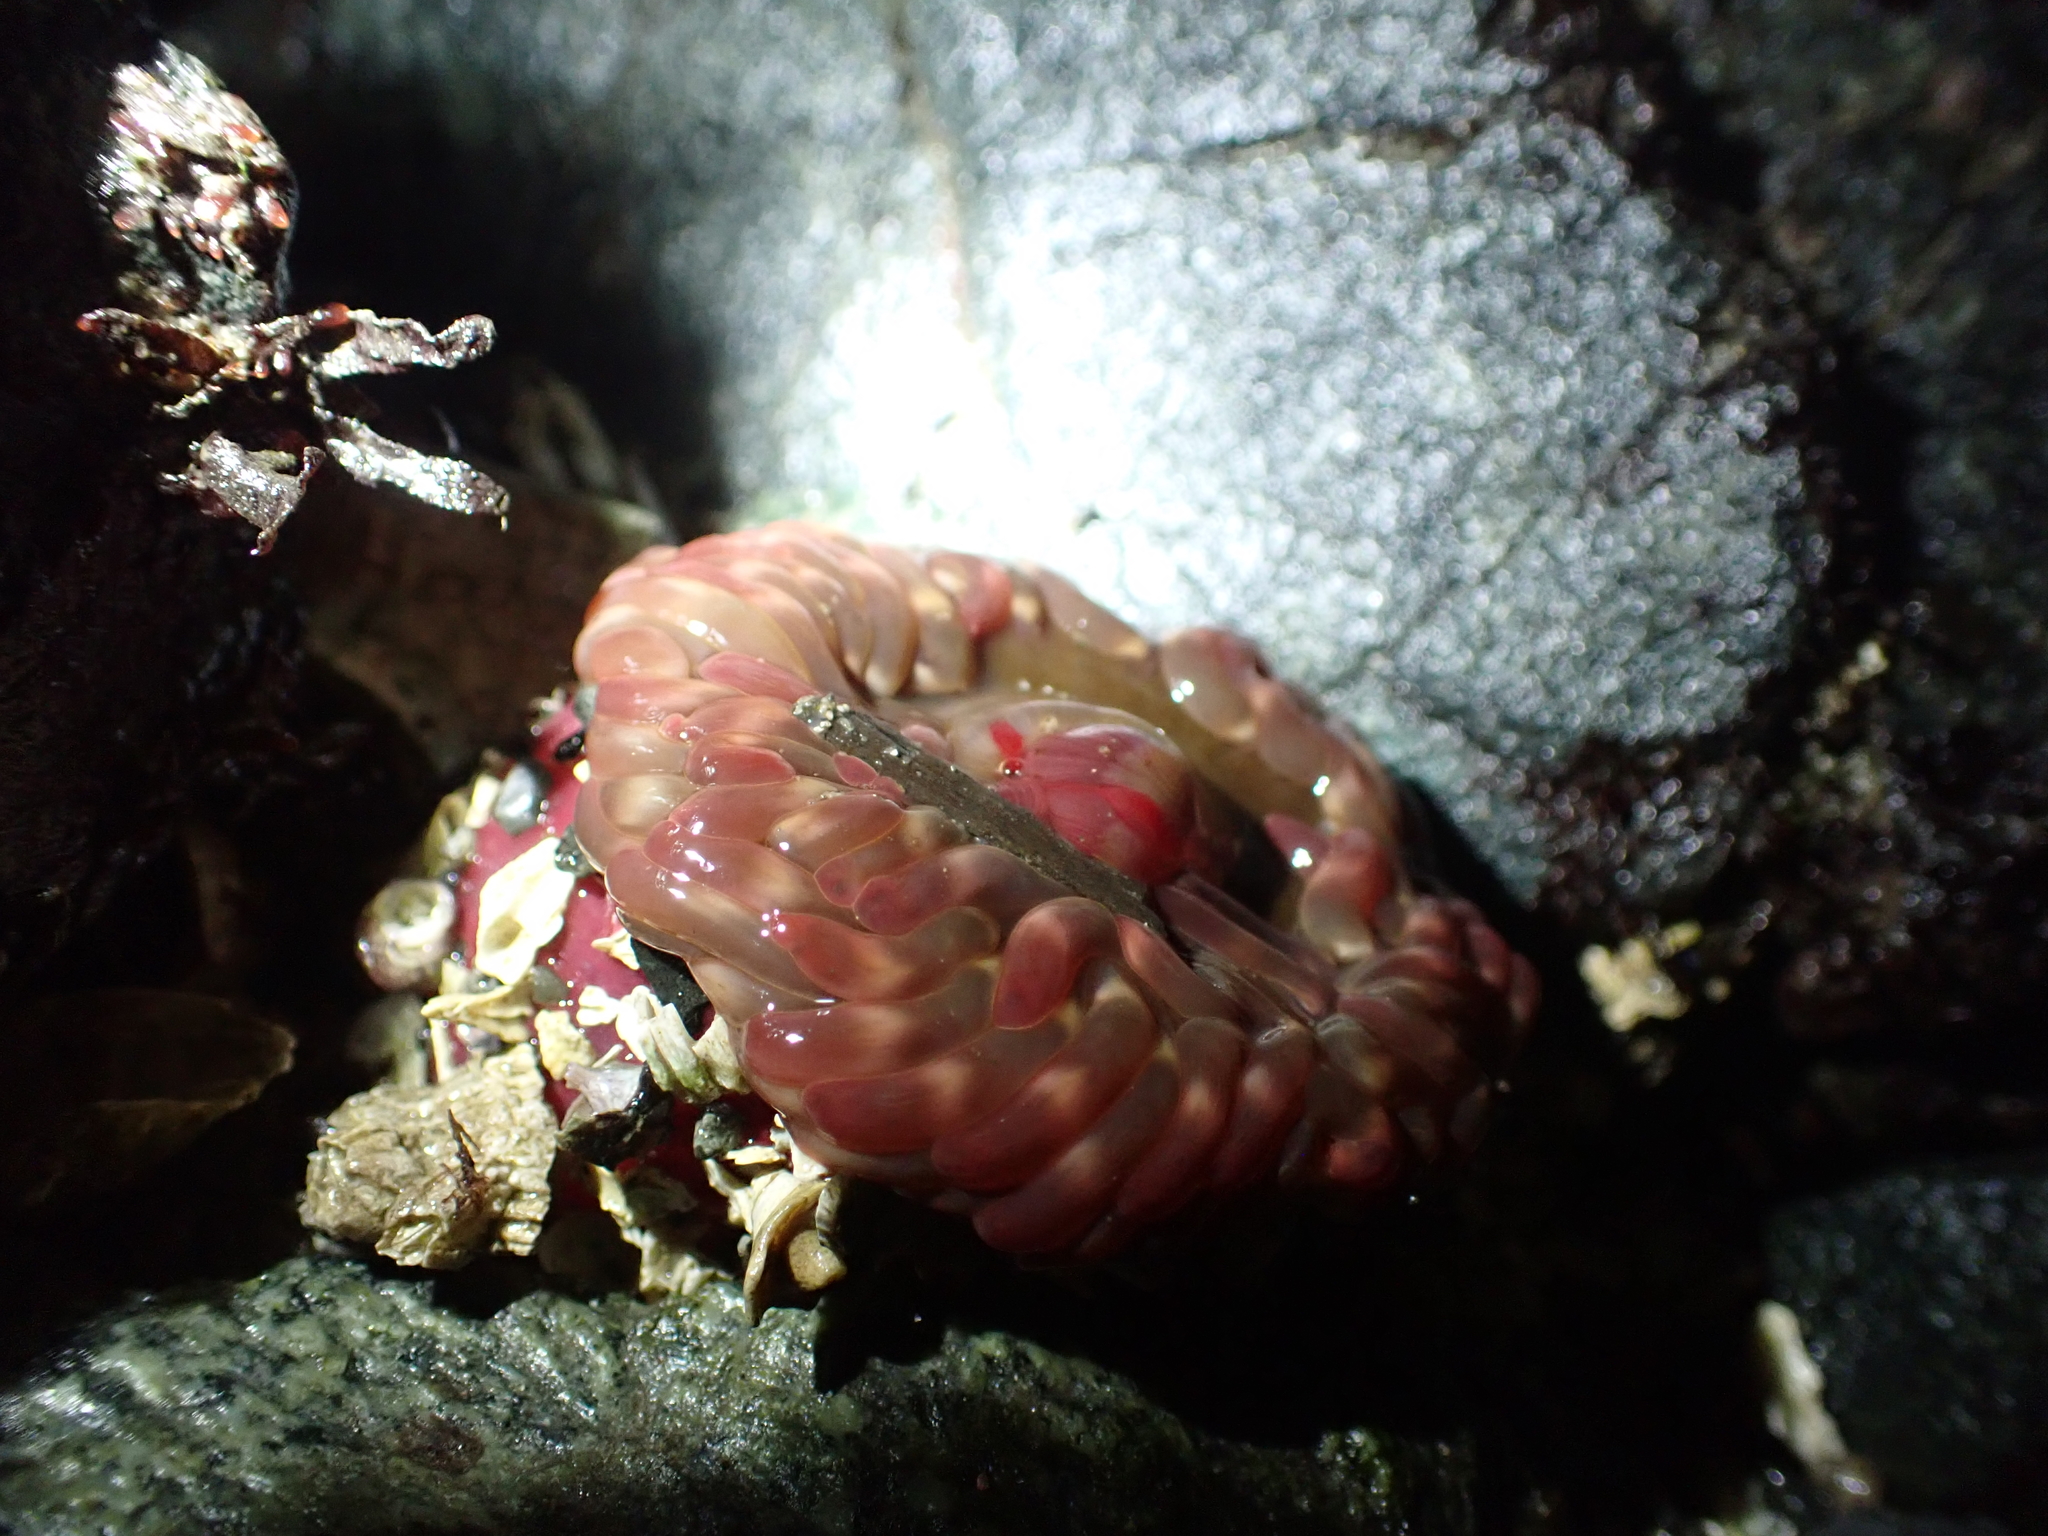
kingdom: Animalia
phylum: Cnidaria
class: Anthozoa
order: Actiniaria
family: Actiniidae
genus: Urticina
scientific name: Urticina clandestina
